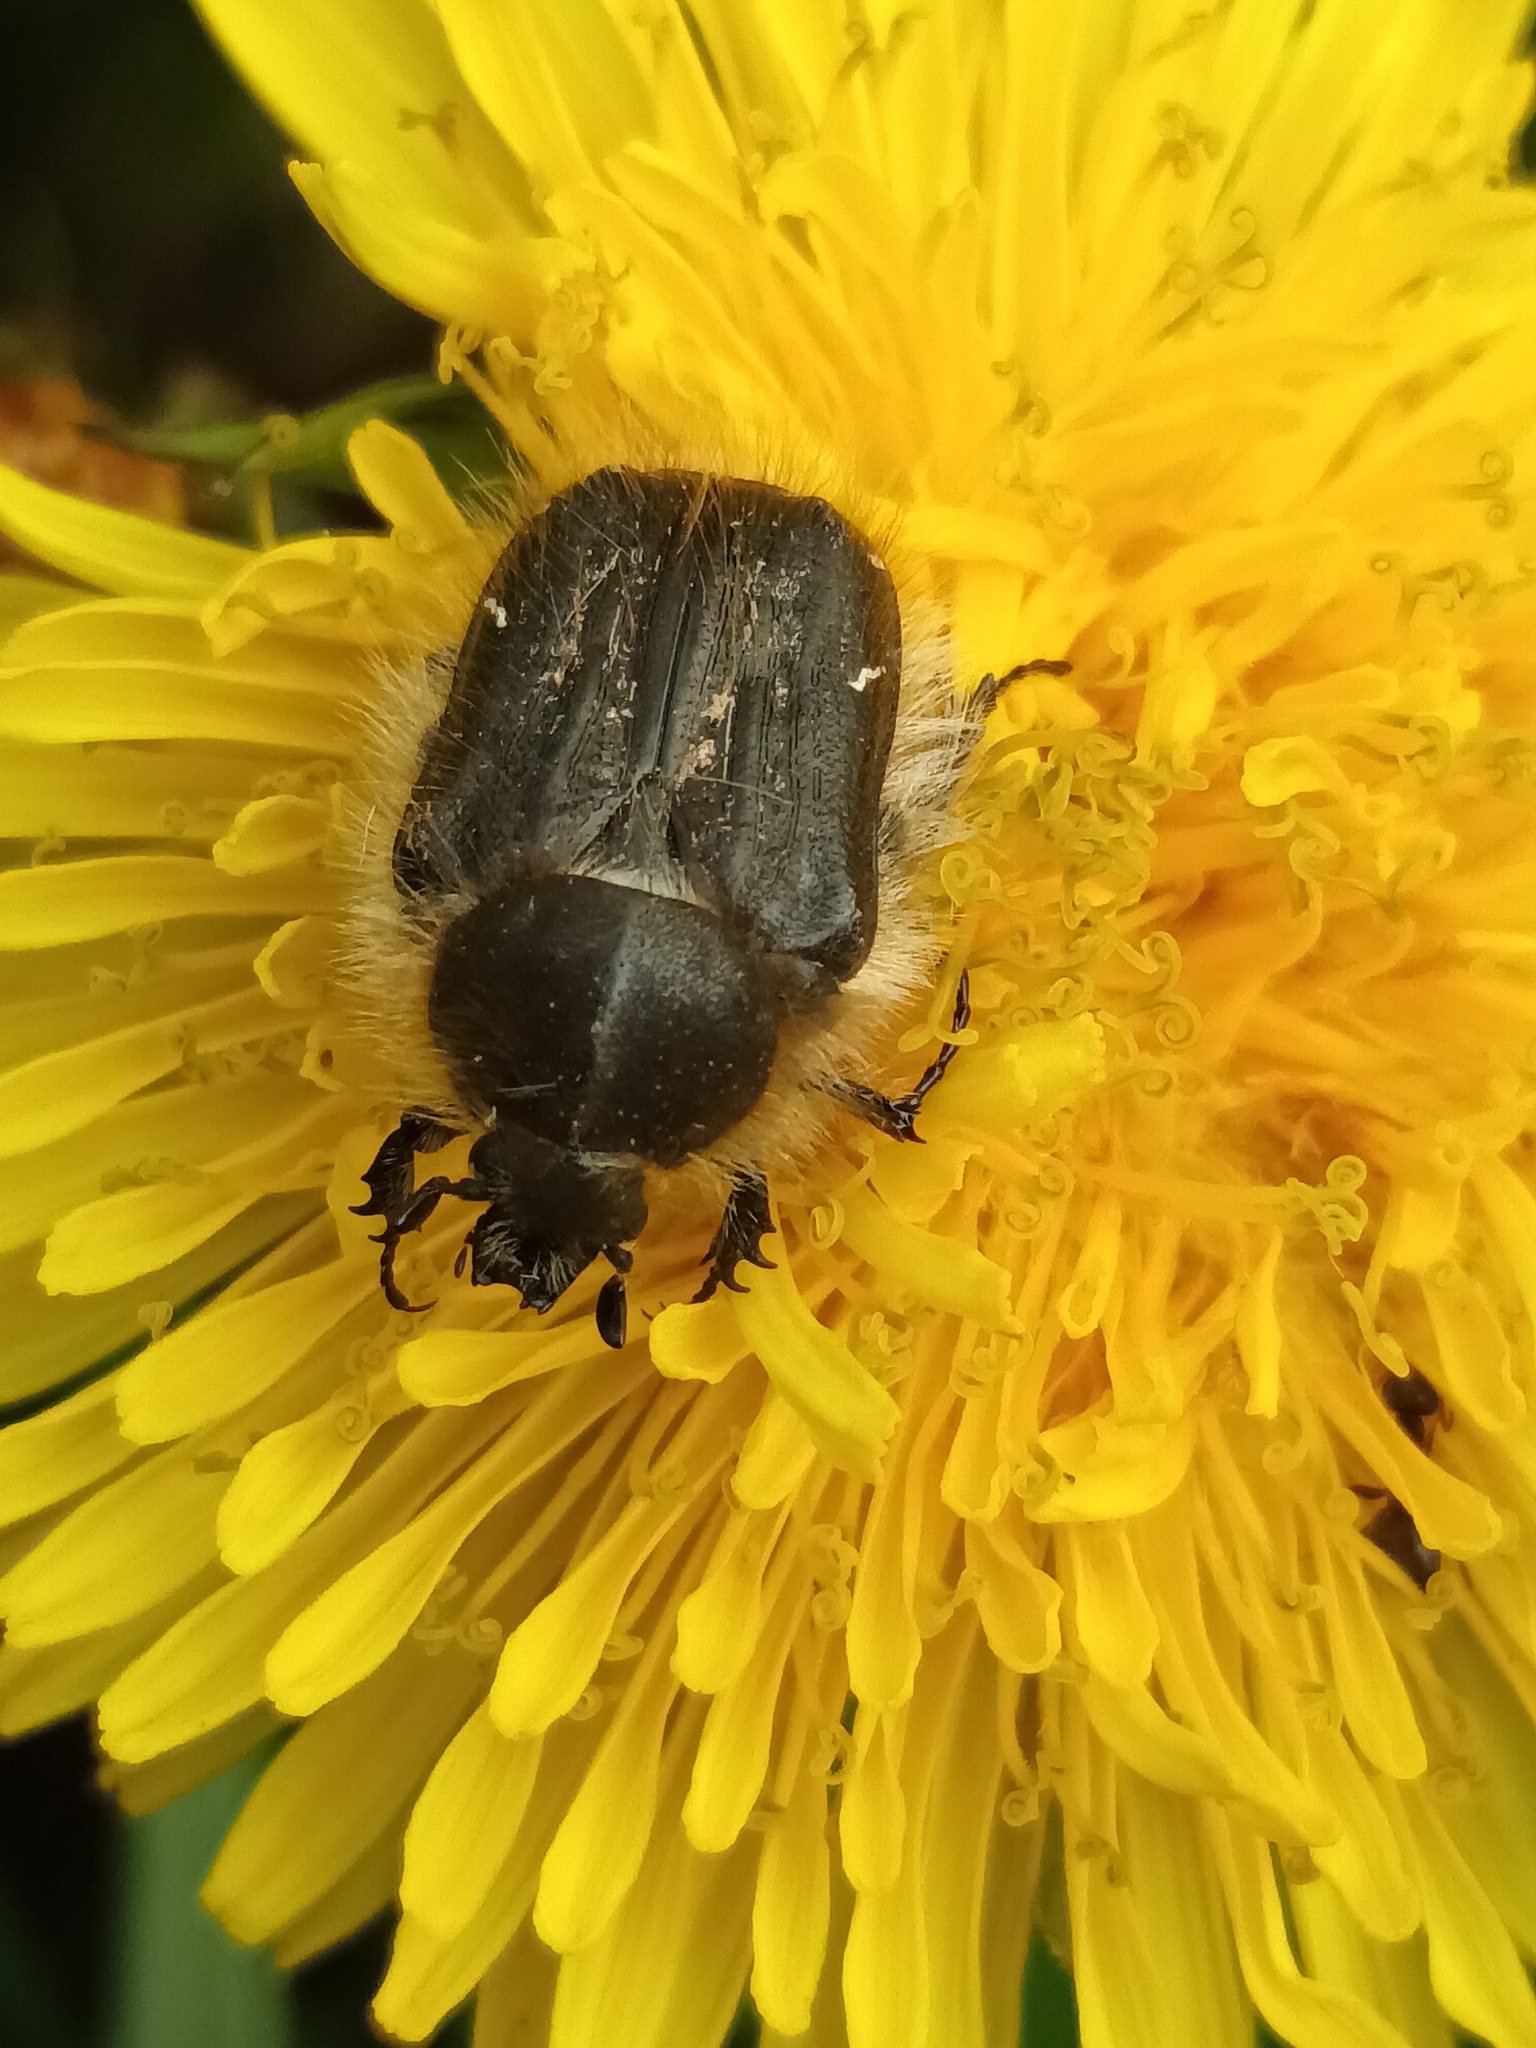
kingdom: Animalia
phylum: Arthropoda
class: Insecta
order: Coleoptera
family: Scarabaeidae
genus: Tropinota
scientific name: Tropinota hirta
